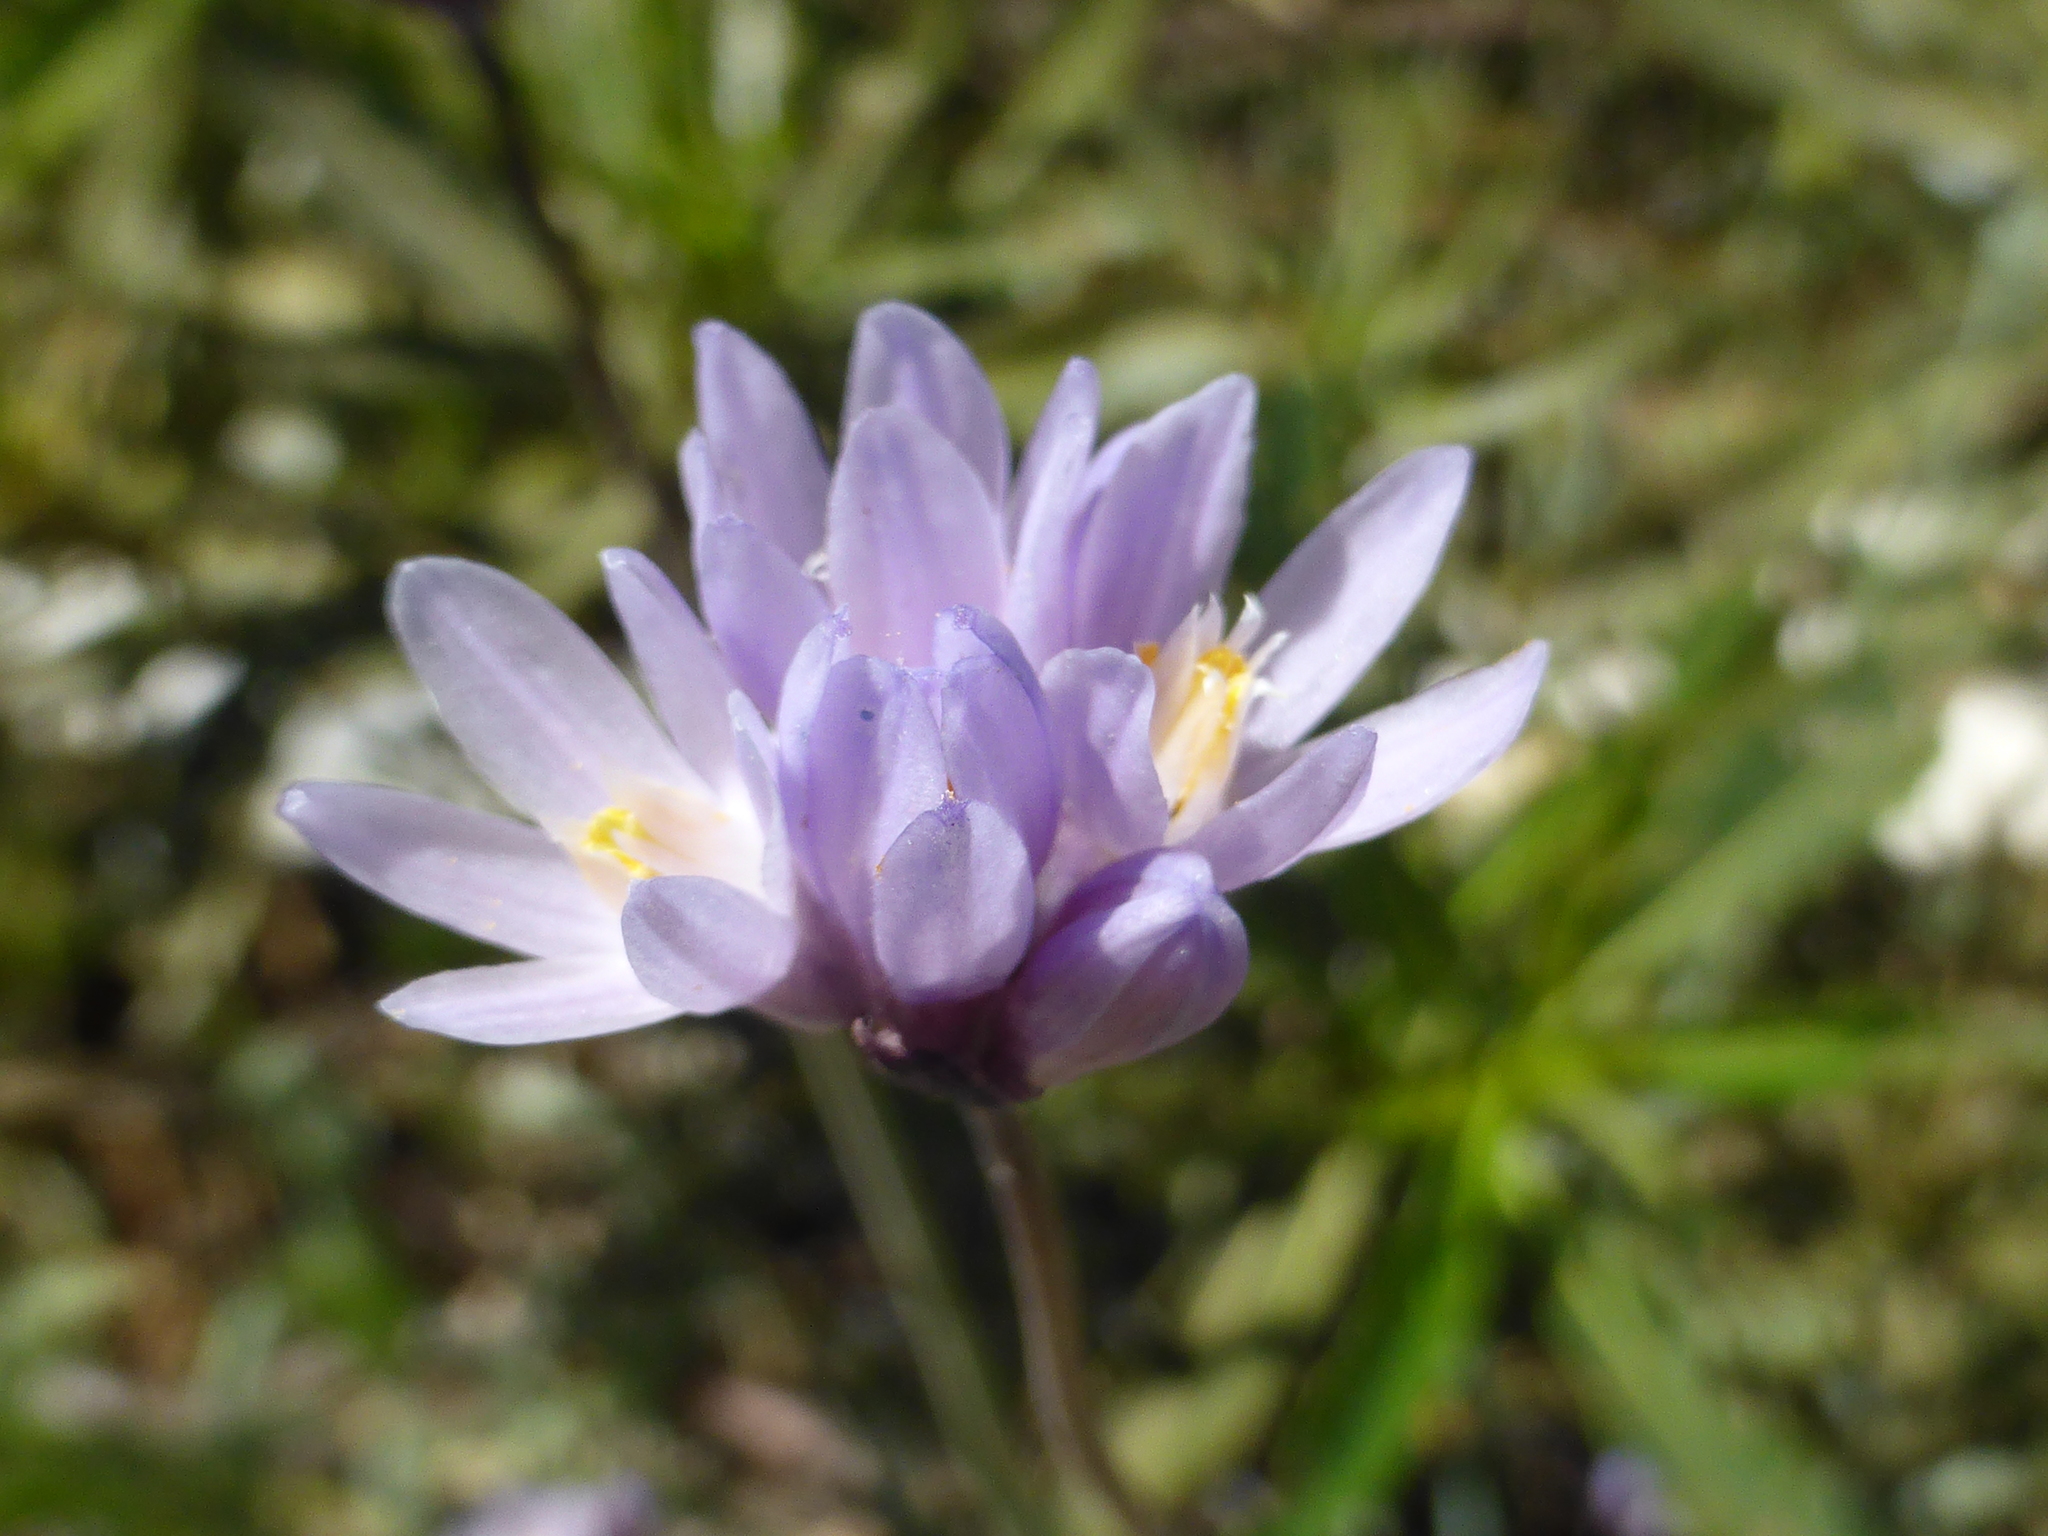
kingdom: Plantae
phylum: Tracheophyta
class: Liliopsida
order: Asparagales
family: Asparagaceae
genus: Dipterostemon
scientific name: Dipterostemon capitatus
